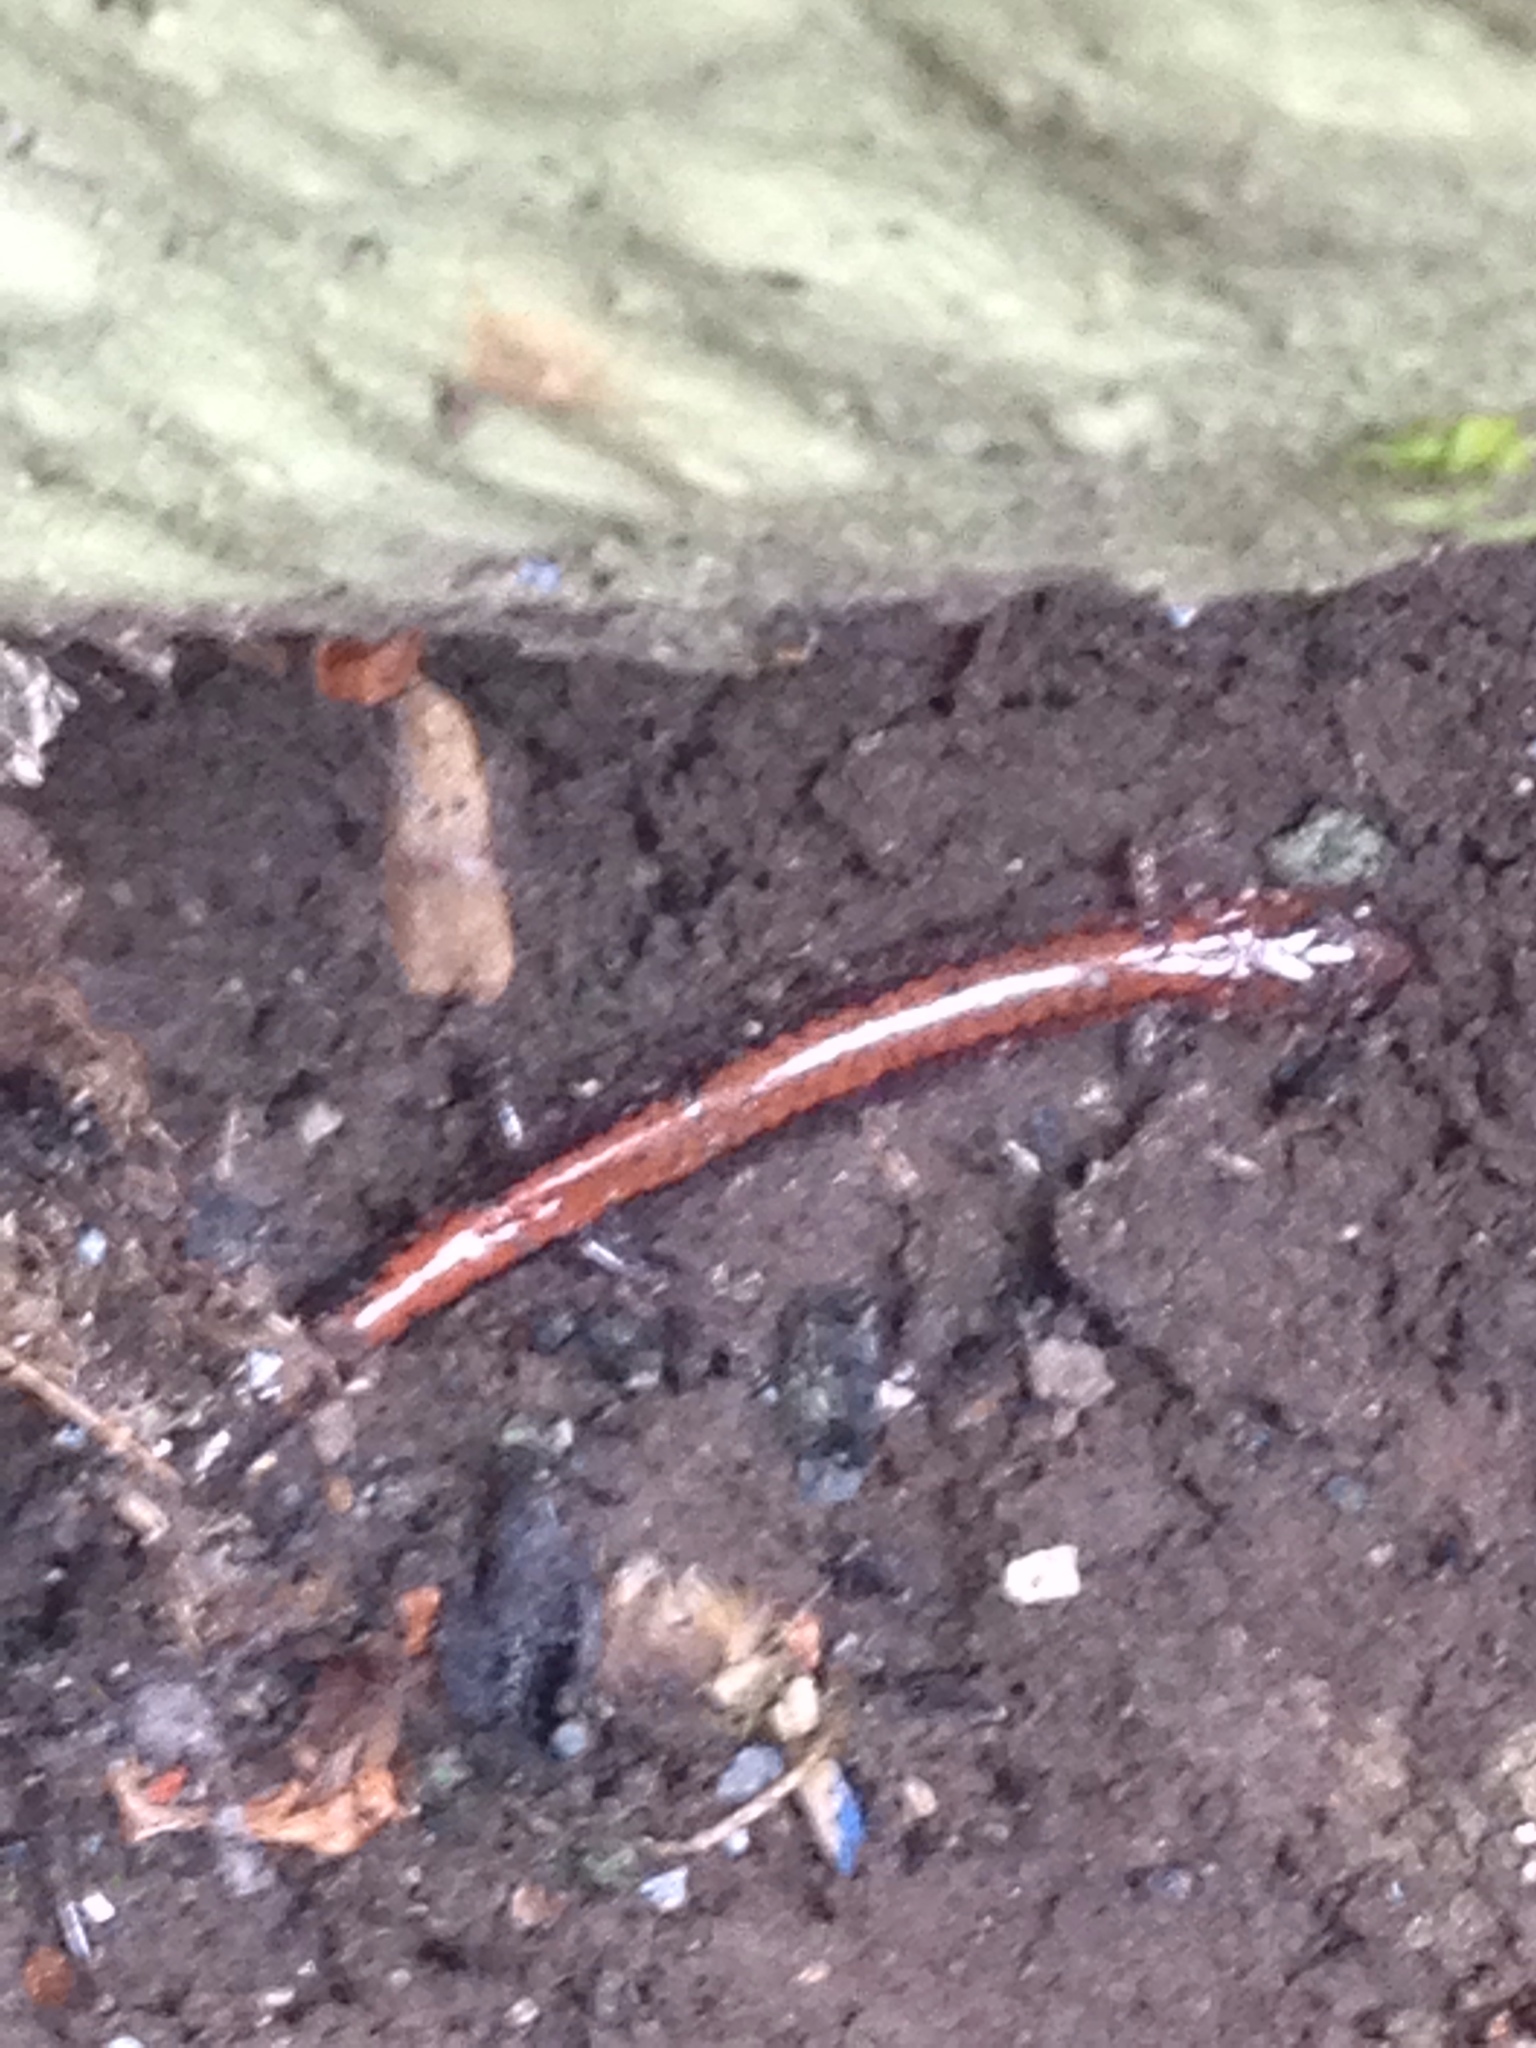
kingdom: Animalia
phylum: Chordata
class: Amphibia
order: Caudata
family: Plethodontidae
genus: Plethodon
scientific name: Plethodon cinereus
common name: Redback salamander
